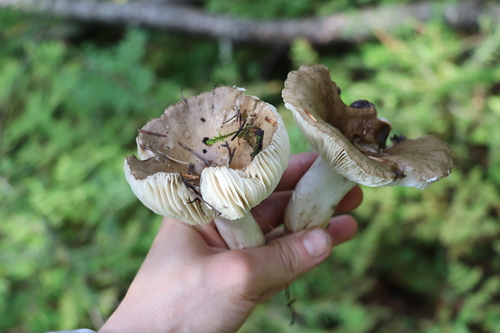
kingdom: Fungi
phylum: Basidiomycota
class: Agaricomycetes
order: Russulales
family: Russulaceae
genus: Russula
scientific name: Russula consobrina
